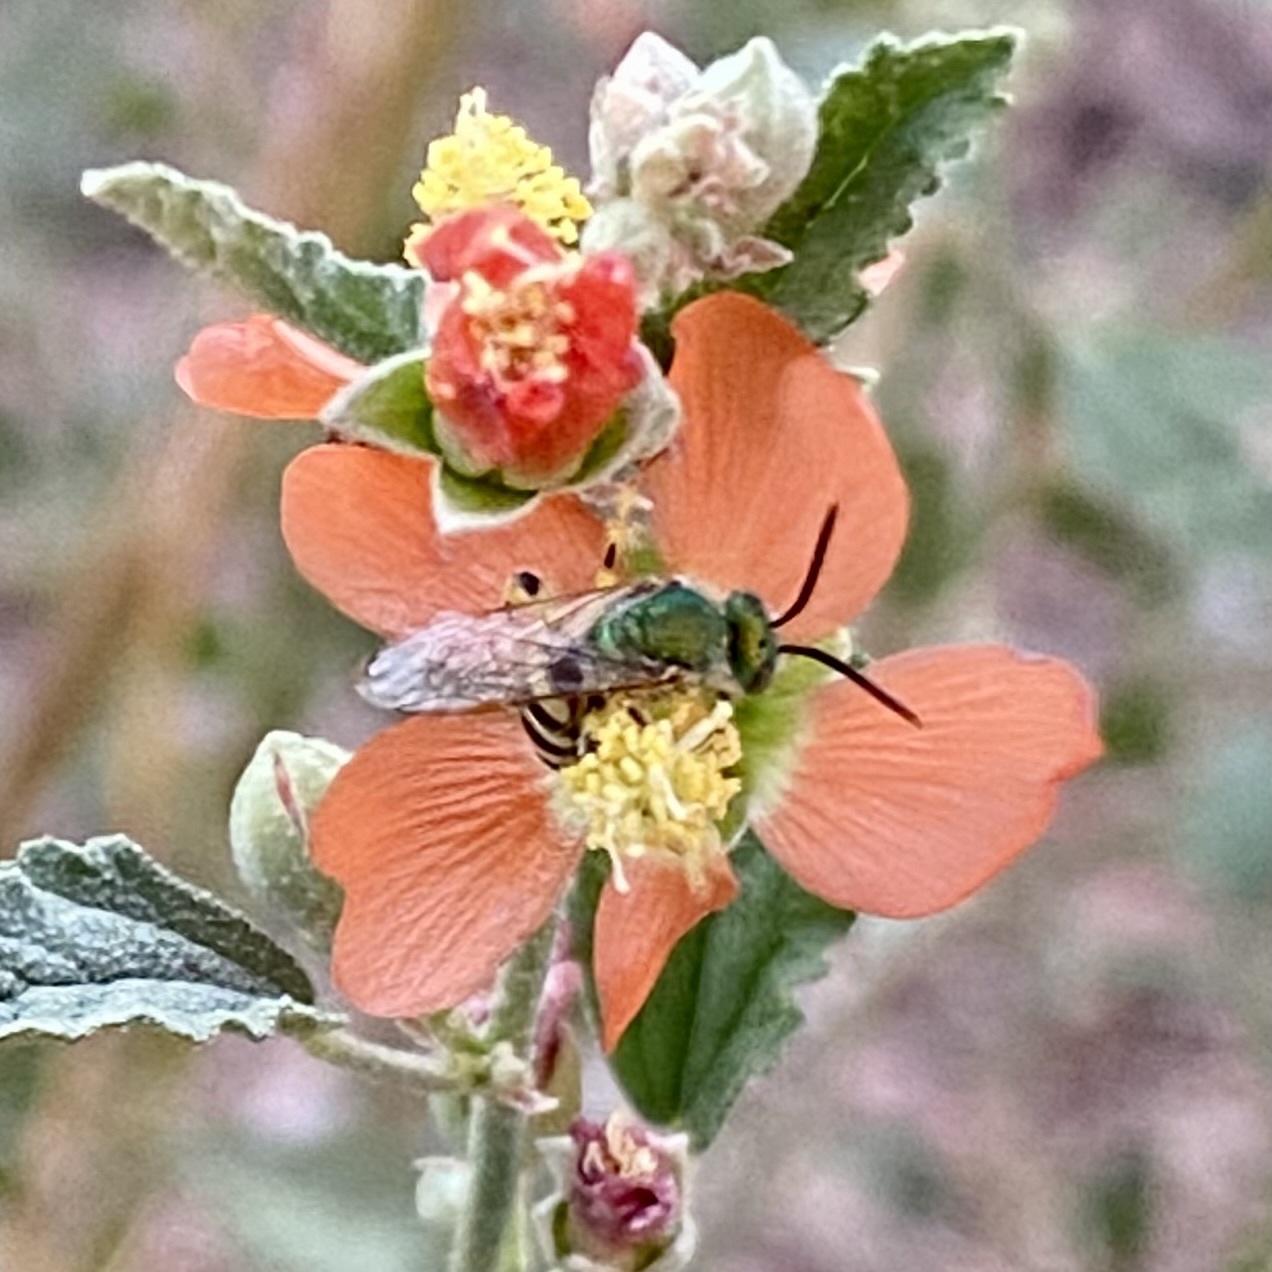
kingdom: Animalia
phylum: Arthropoda
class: Insecta
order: Hymenoptera
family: Halictidae
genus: Agapostemon
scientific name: Agapostemon
